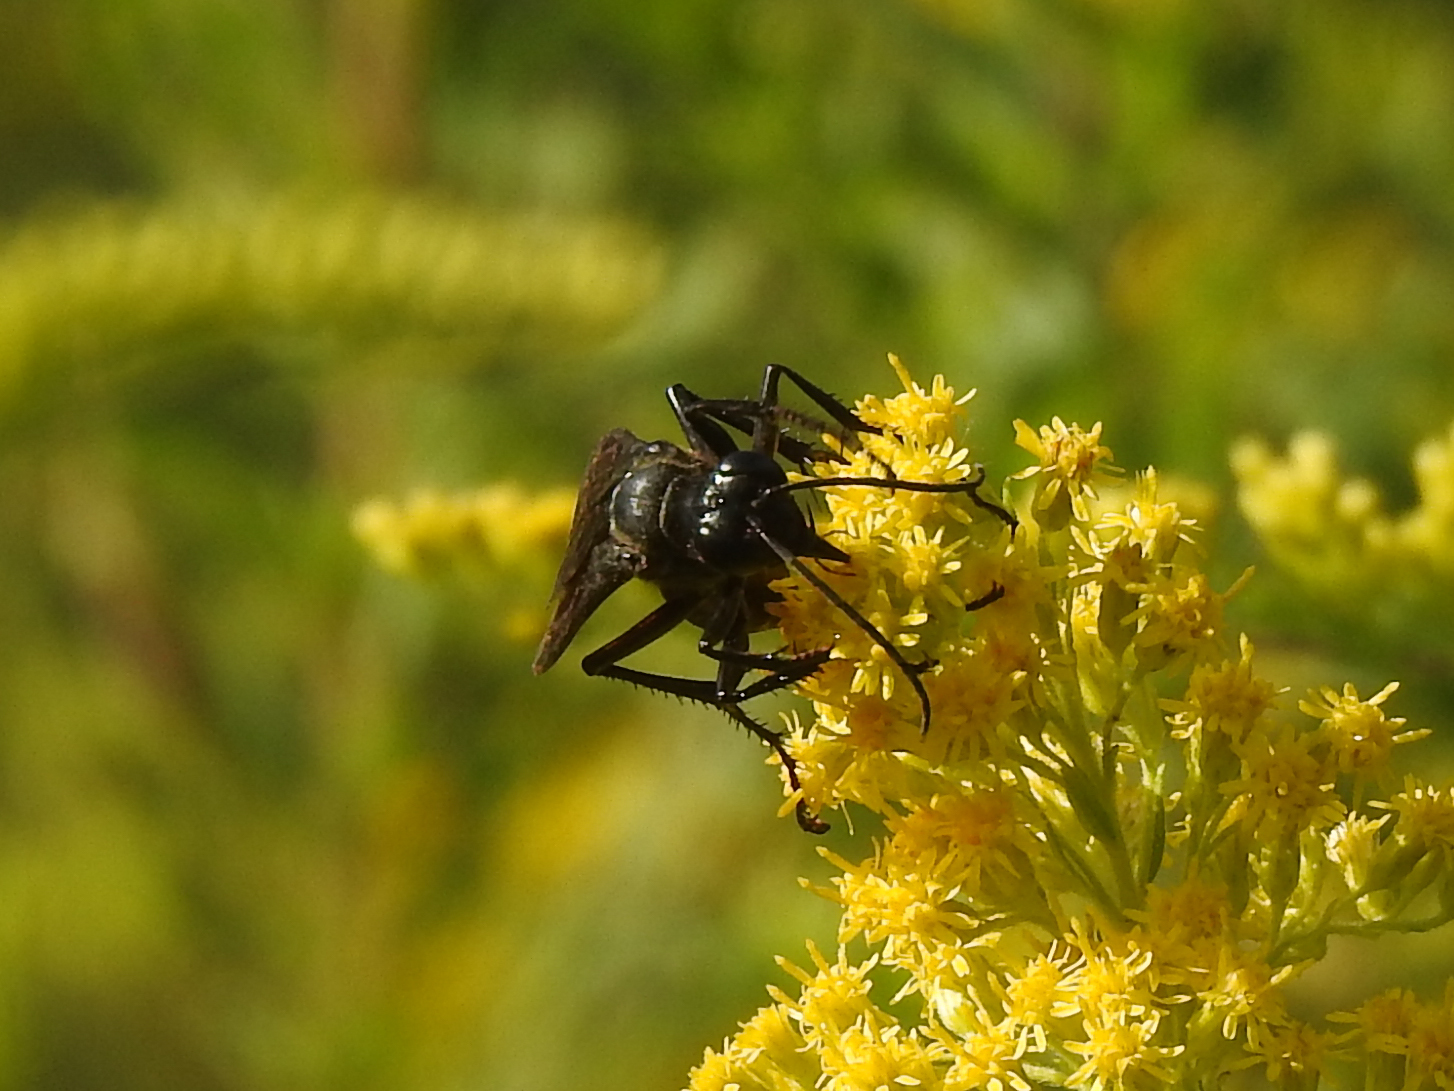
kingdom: Animalia
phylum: Arthropoda
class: Insecta
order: Hymenoptera
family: Sphecidae
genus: Sphex
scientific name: Sphex pensylvanicus
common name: Great black digger wasp
